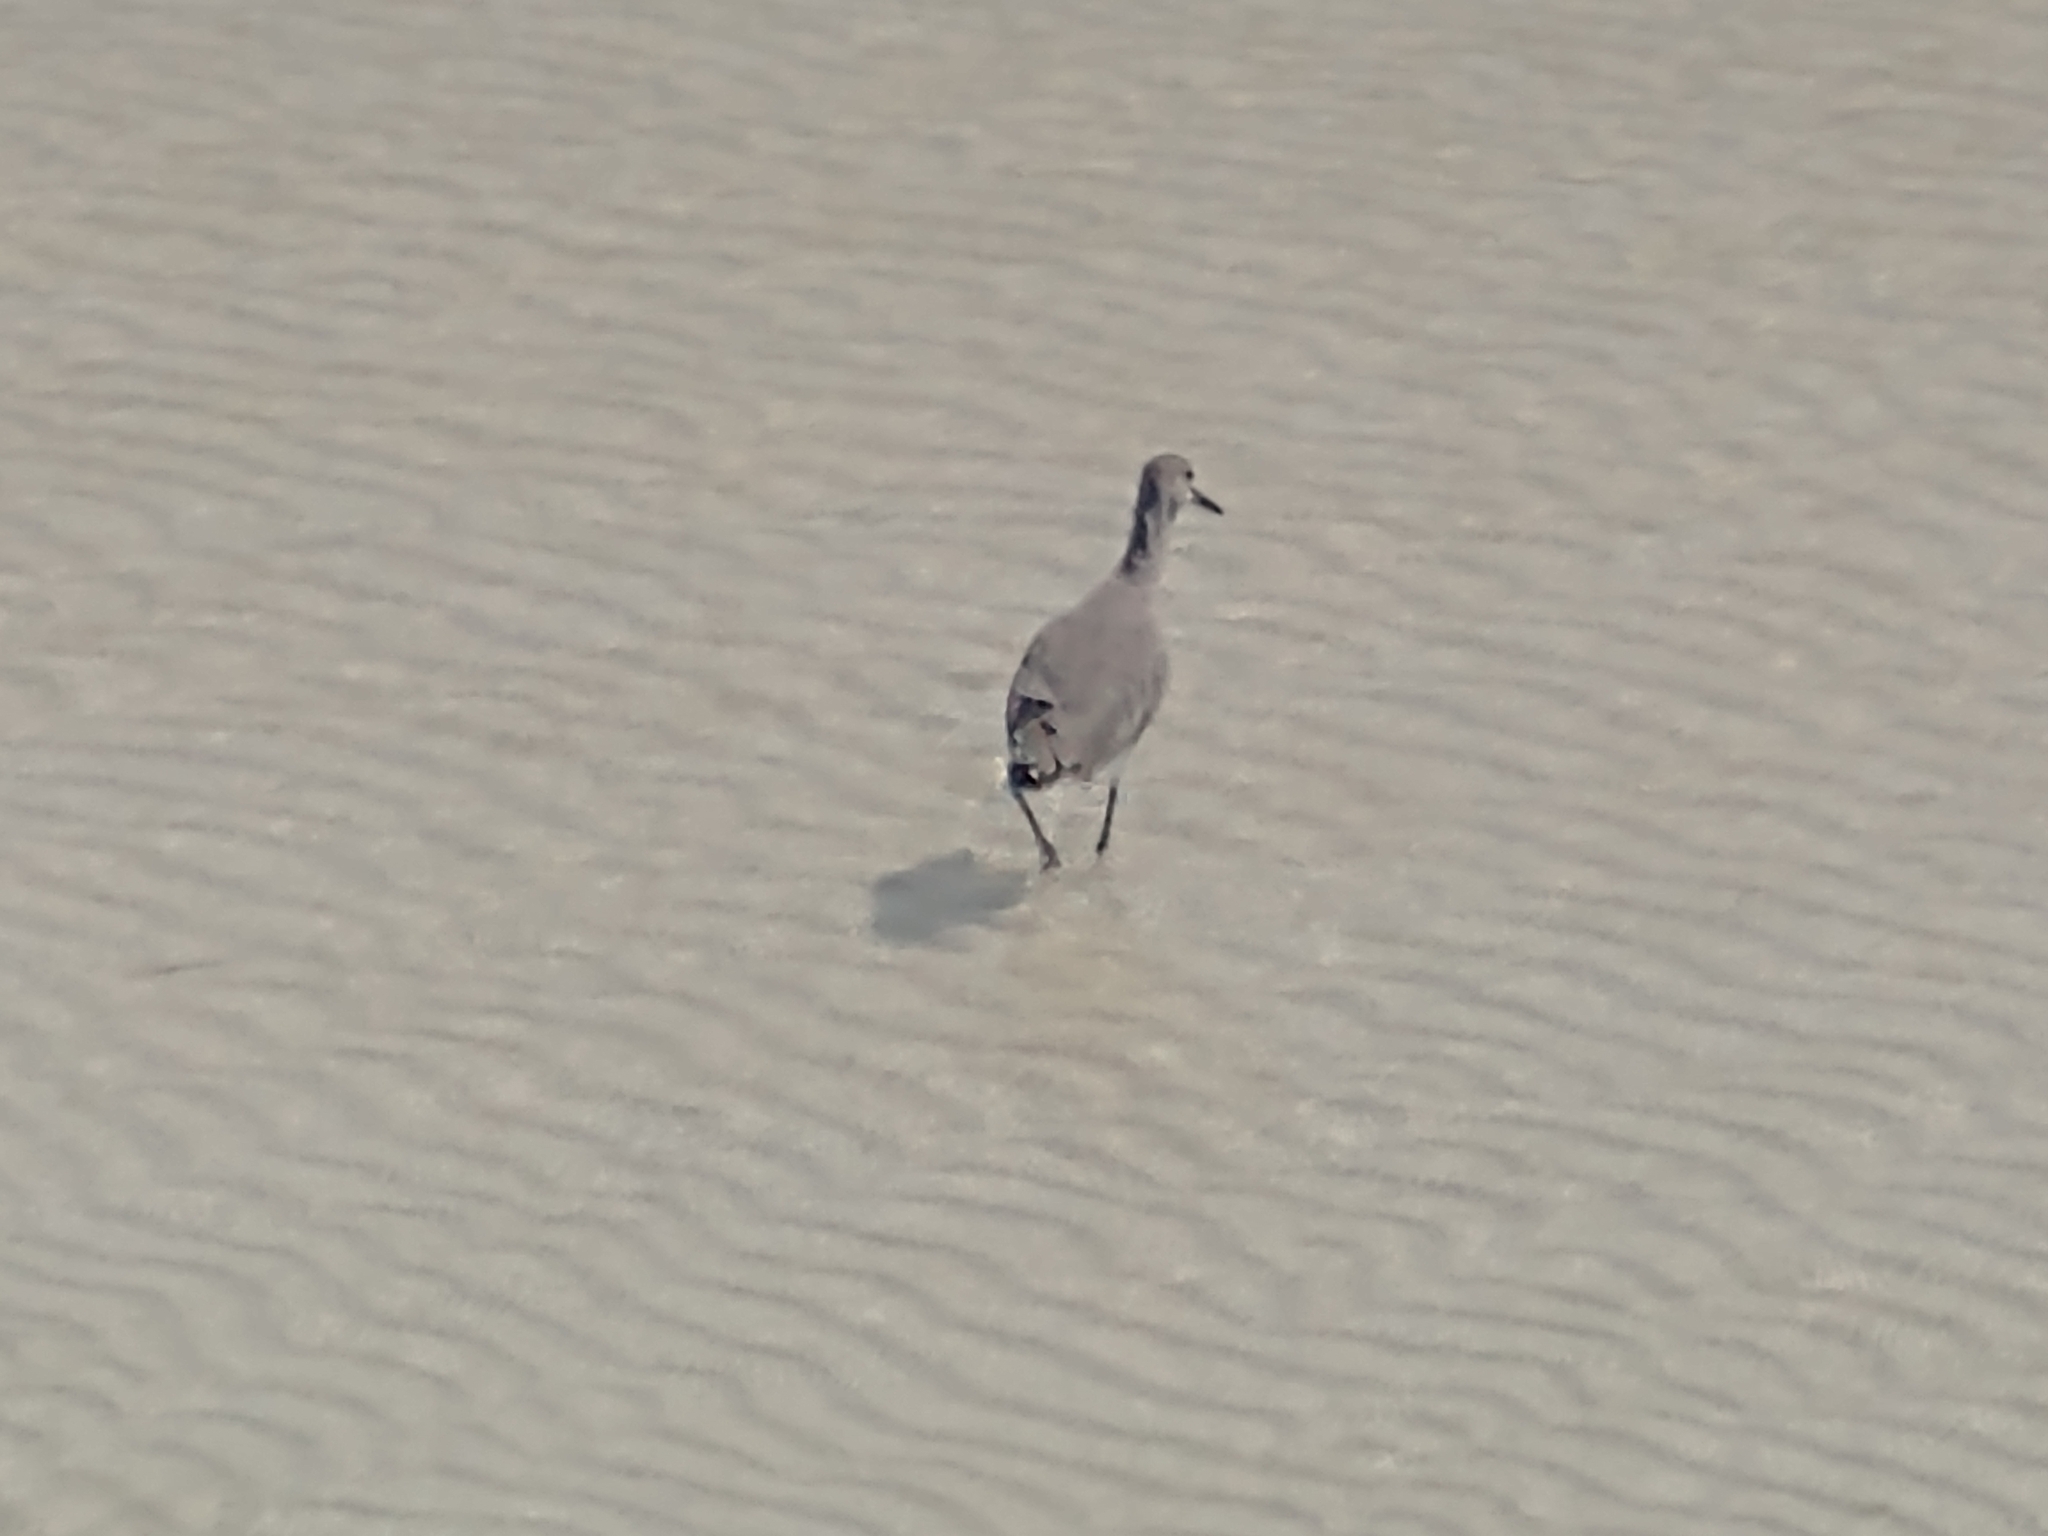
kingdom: Animalia
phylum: Chordata
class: Aves
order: Charadriiformes
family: Scolopacidae
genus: Tringa
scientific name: Tringa semipalmata
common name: Willet
